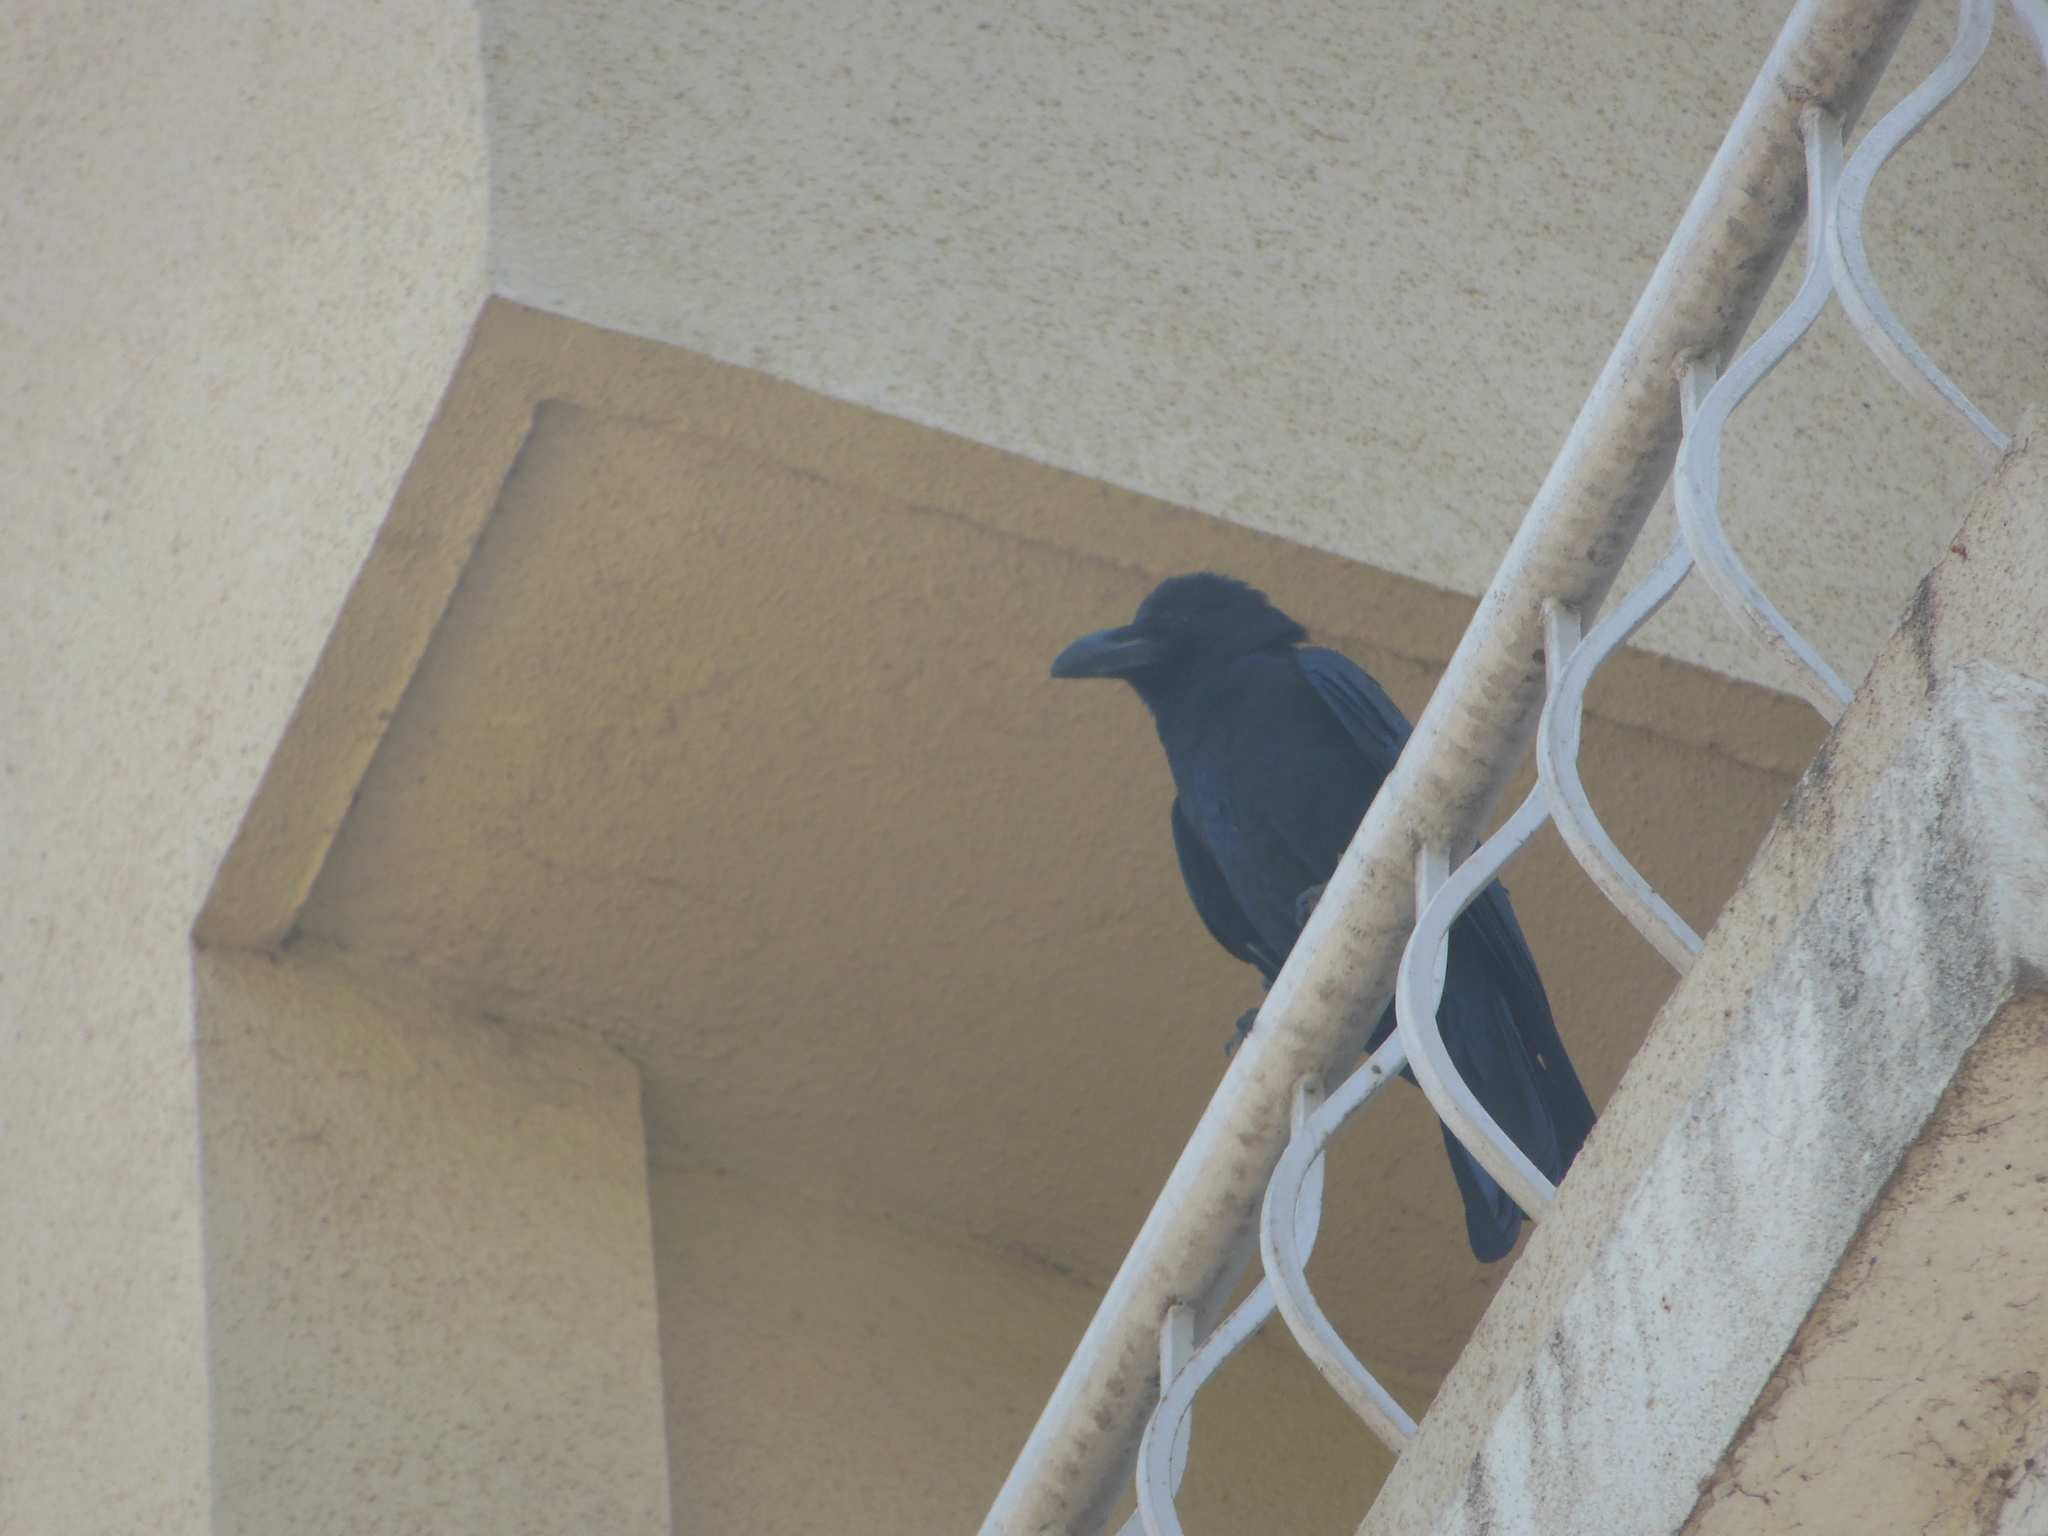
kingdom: Animalia
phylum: Chordata
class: Aves
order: Passeriformes
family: Corvidae
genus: Corvus
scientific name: Corvus macrorhynchos
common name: Large-billed crow
